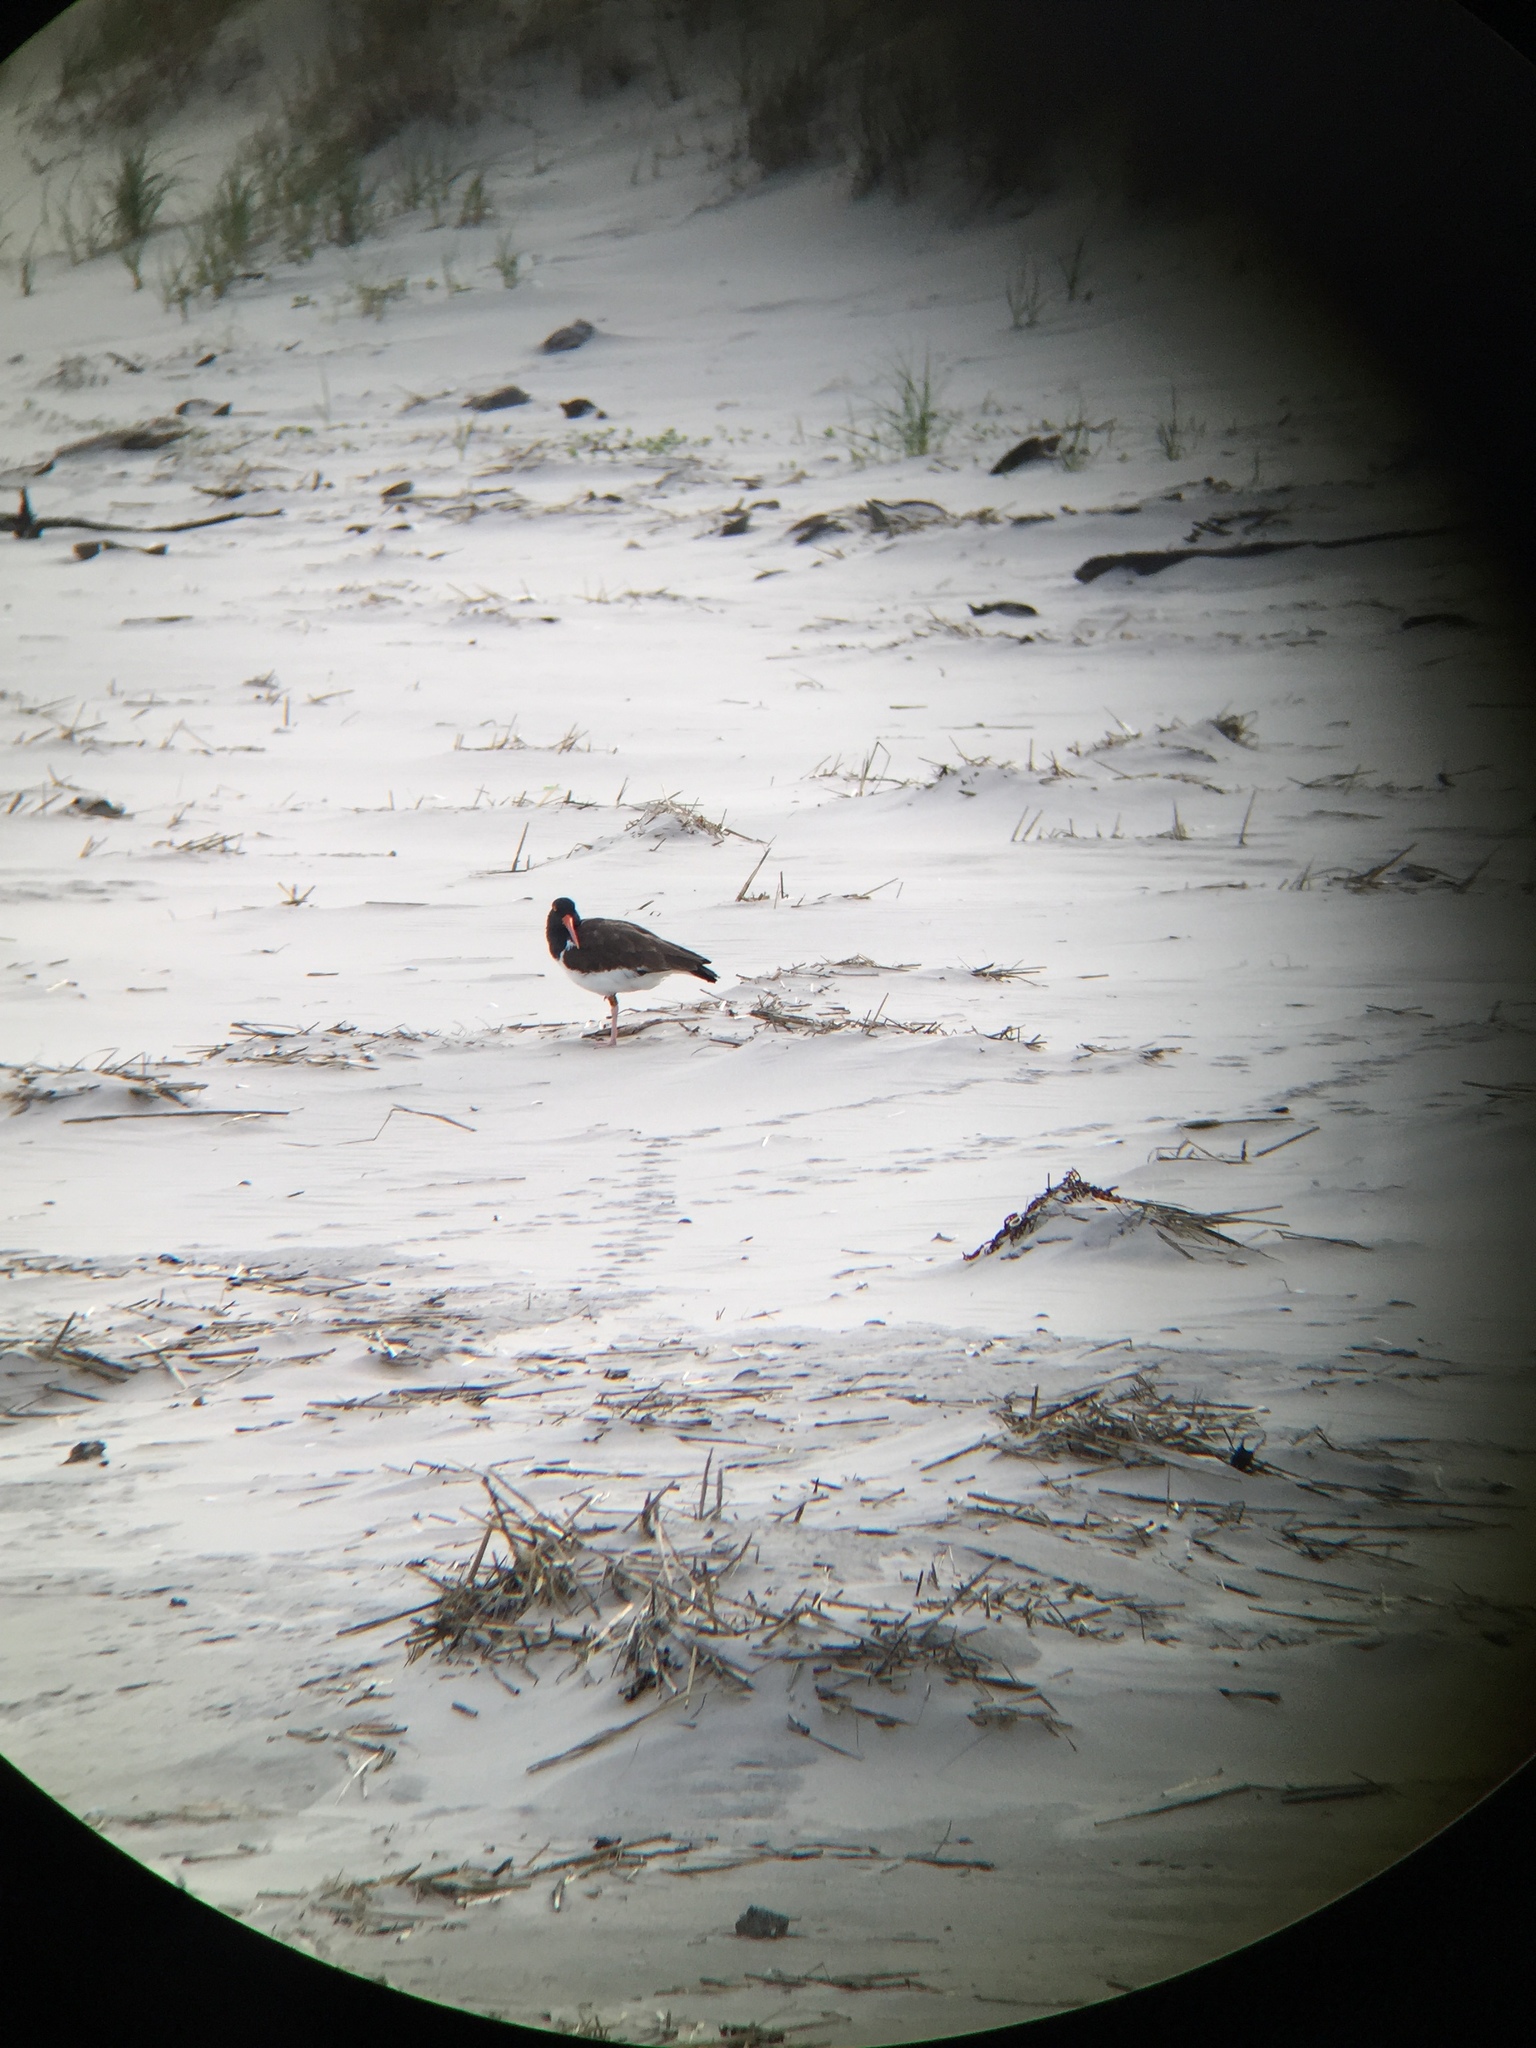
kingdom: Animalia
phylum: Chordata
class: Aves
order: Charadriiformes
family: Haematopodidae
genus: Haematopus
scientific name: Haematopus palliatus
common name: American oystercatcher
